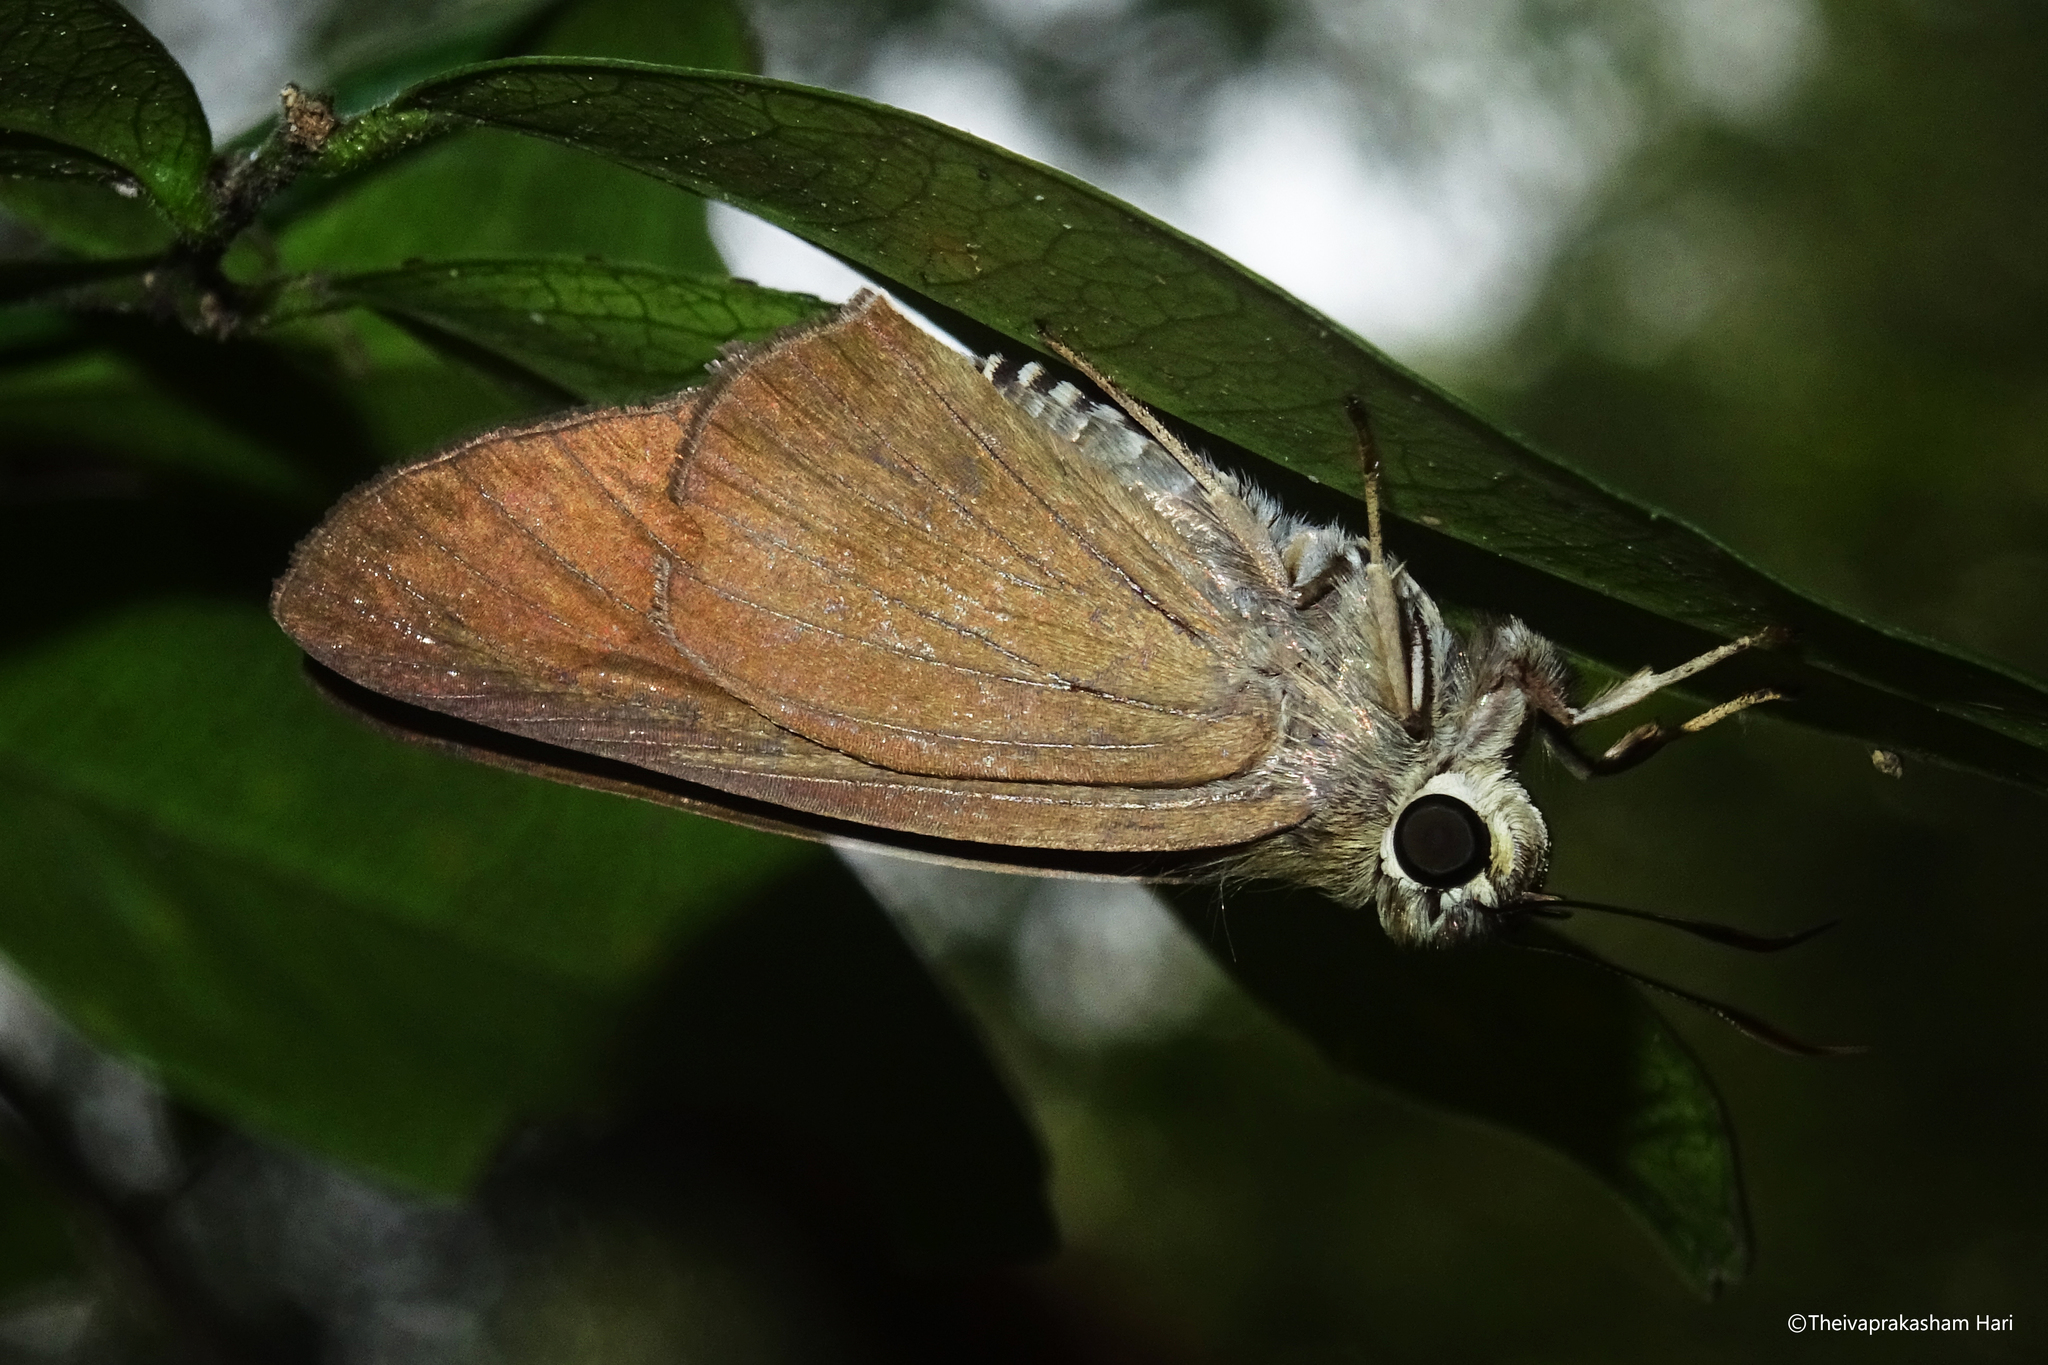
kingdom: Animalia
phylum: Arthropoda
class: Insecta
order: Lepidoptera
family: Hesperiidae
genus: Badamia
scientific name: Badamia exclamationis
